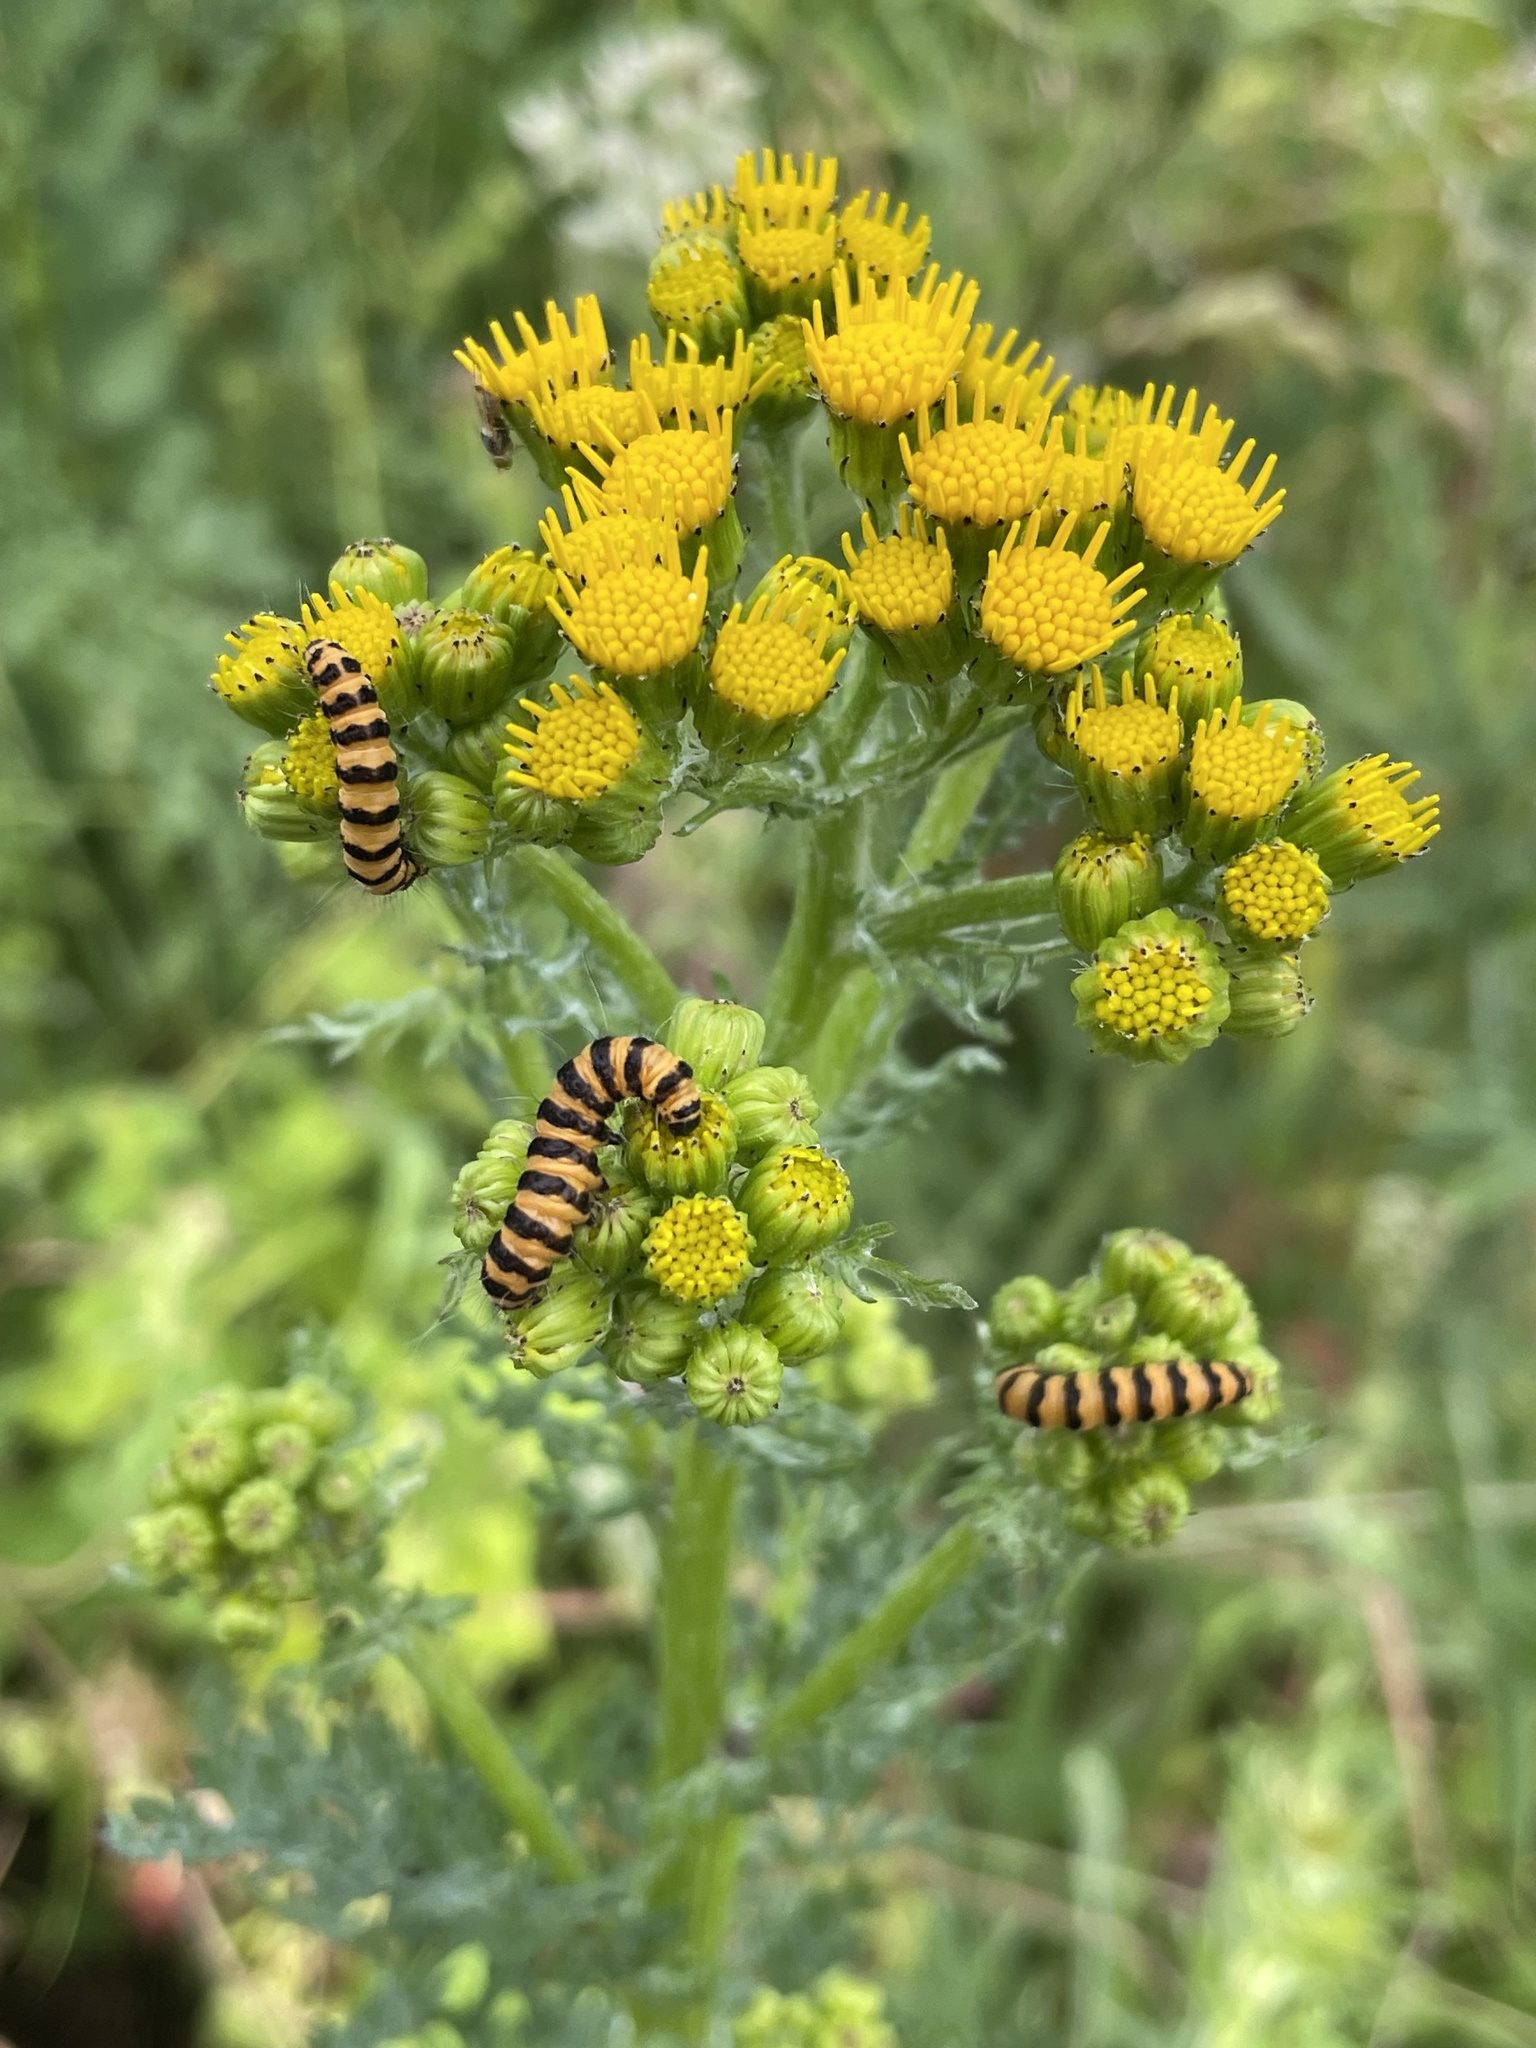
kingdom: Animalia
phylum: Arthropoda
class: Insecta
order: Lepidoptera
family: Erebidae
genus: Tyria
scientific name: Tyria jacobaeae
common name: Cinnabar
